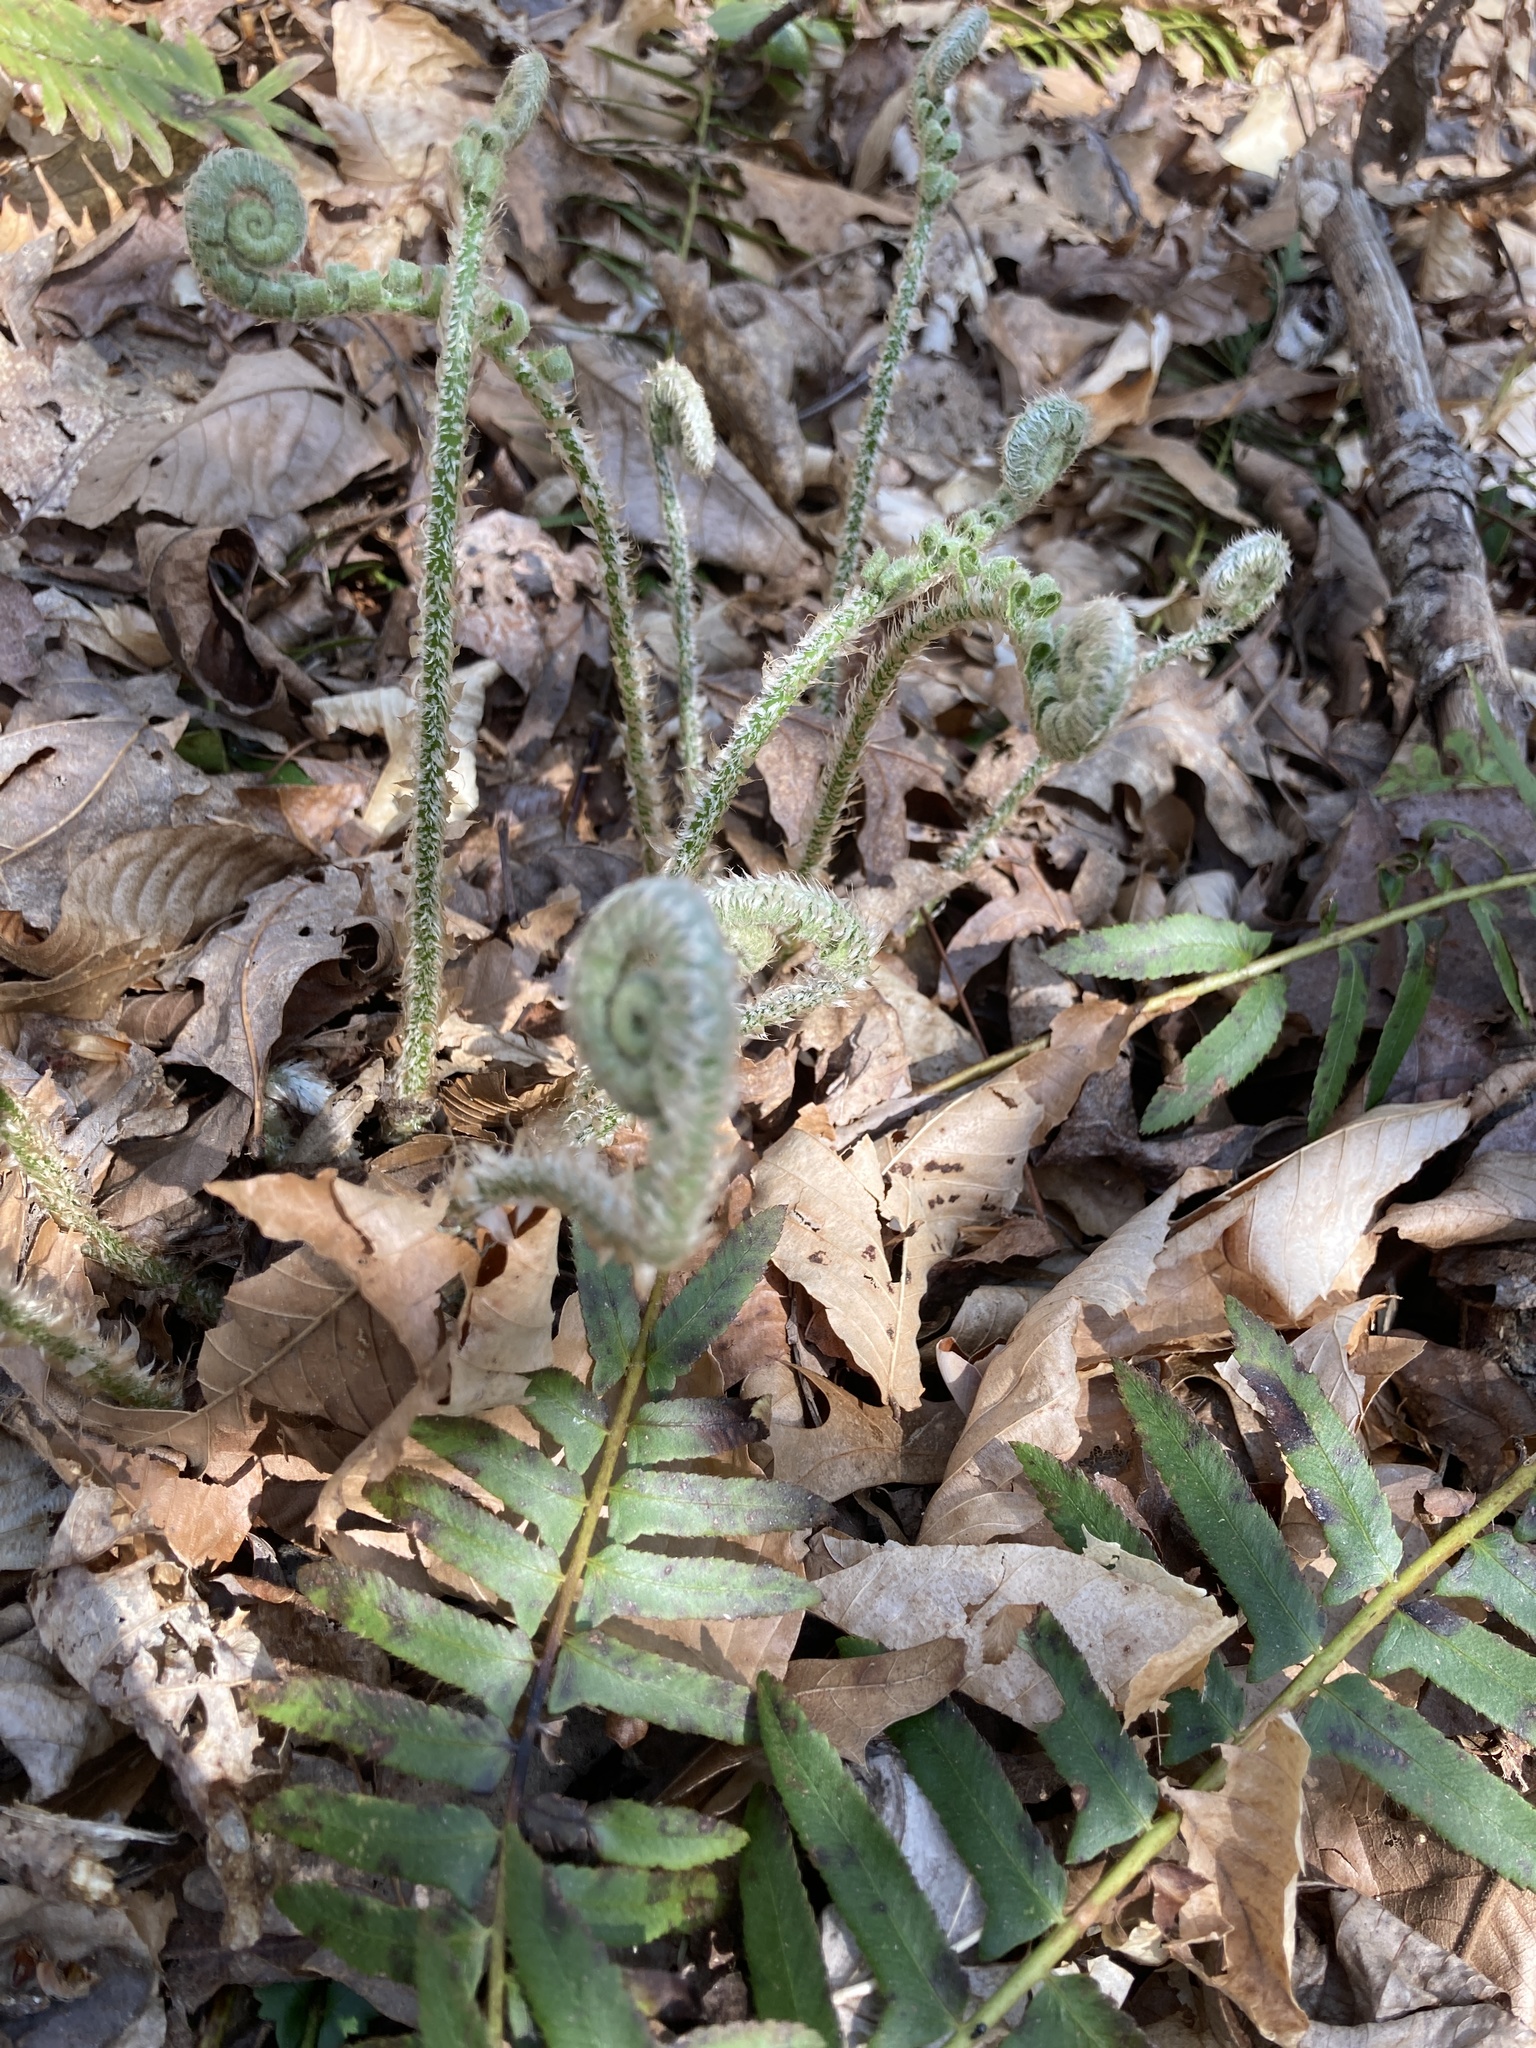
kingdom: Plantae
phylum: Tracheophyta
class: Polypodiopsida
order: Polypodiales
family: Dryopteridaceae
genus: Polystichum
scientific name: Polystichum acrostichoides
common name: Christmas fern
